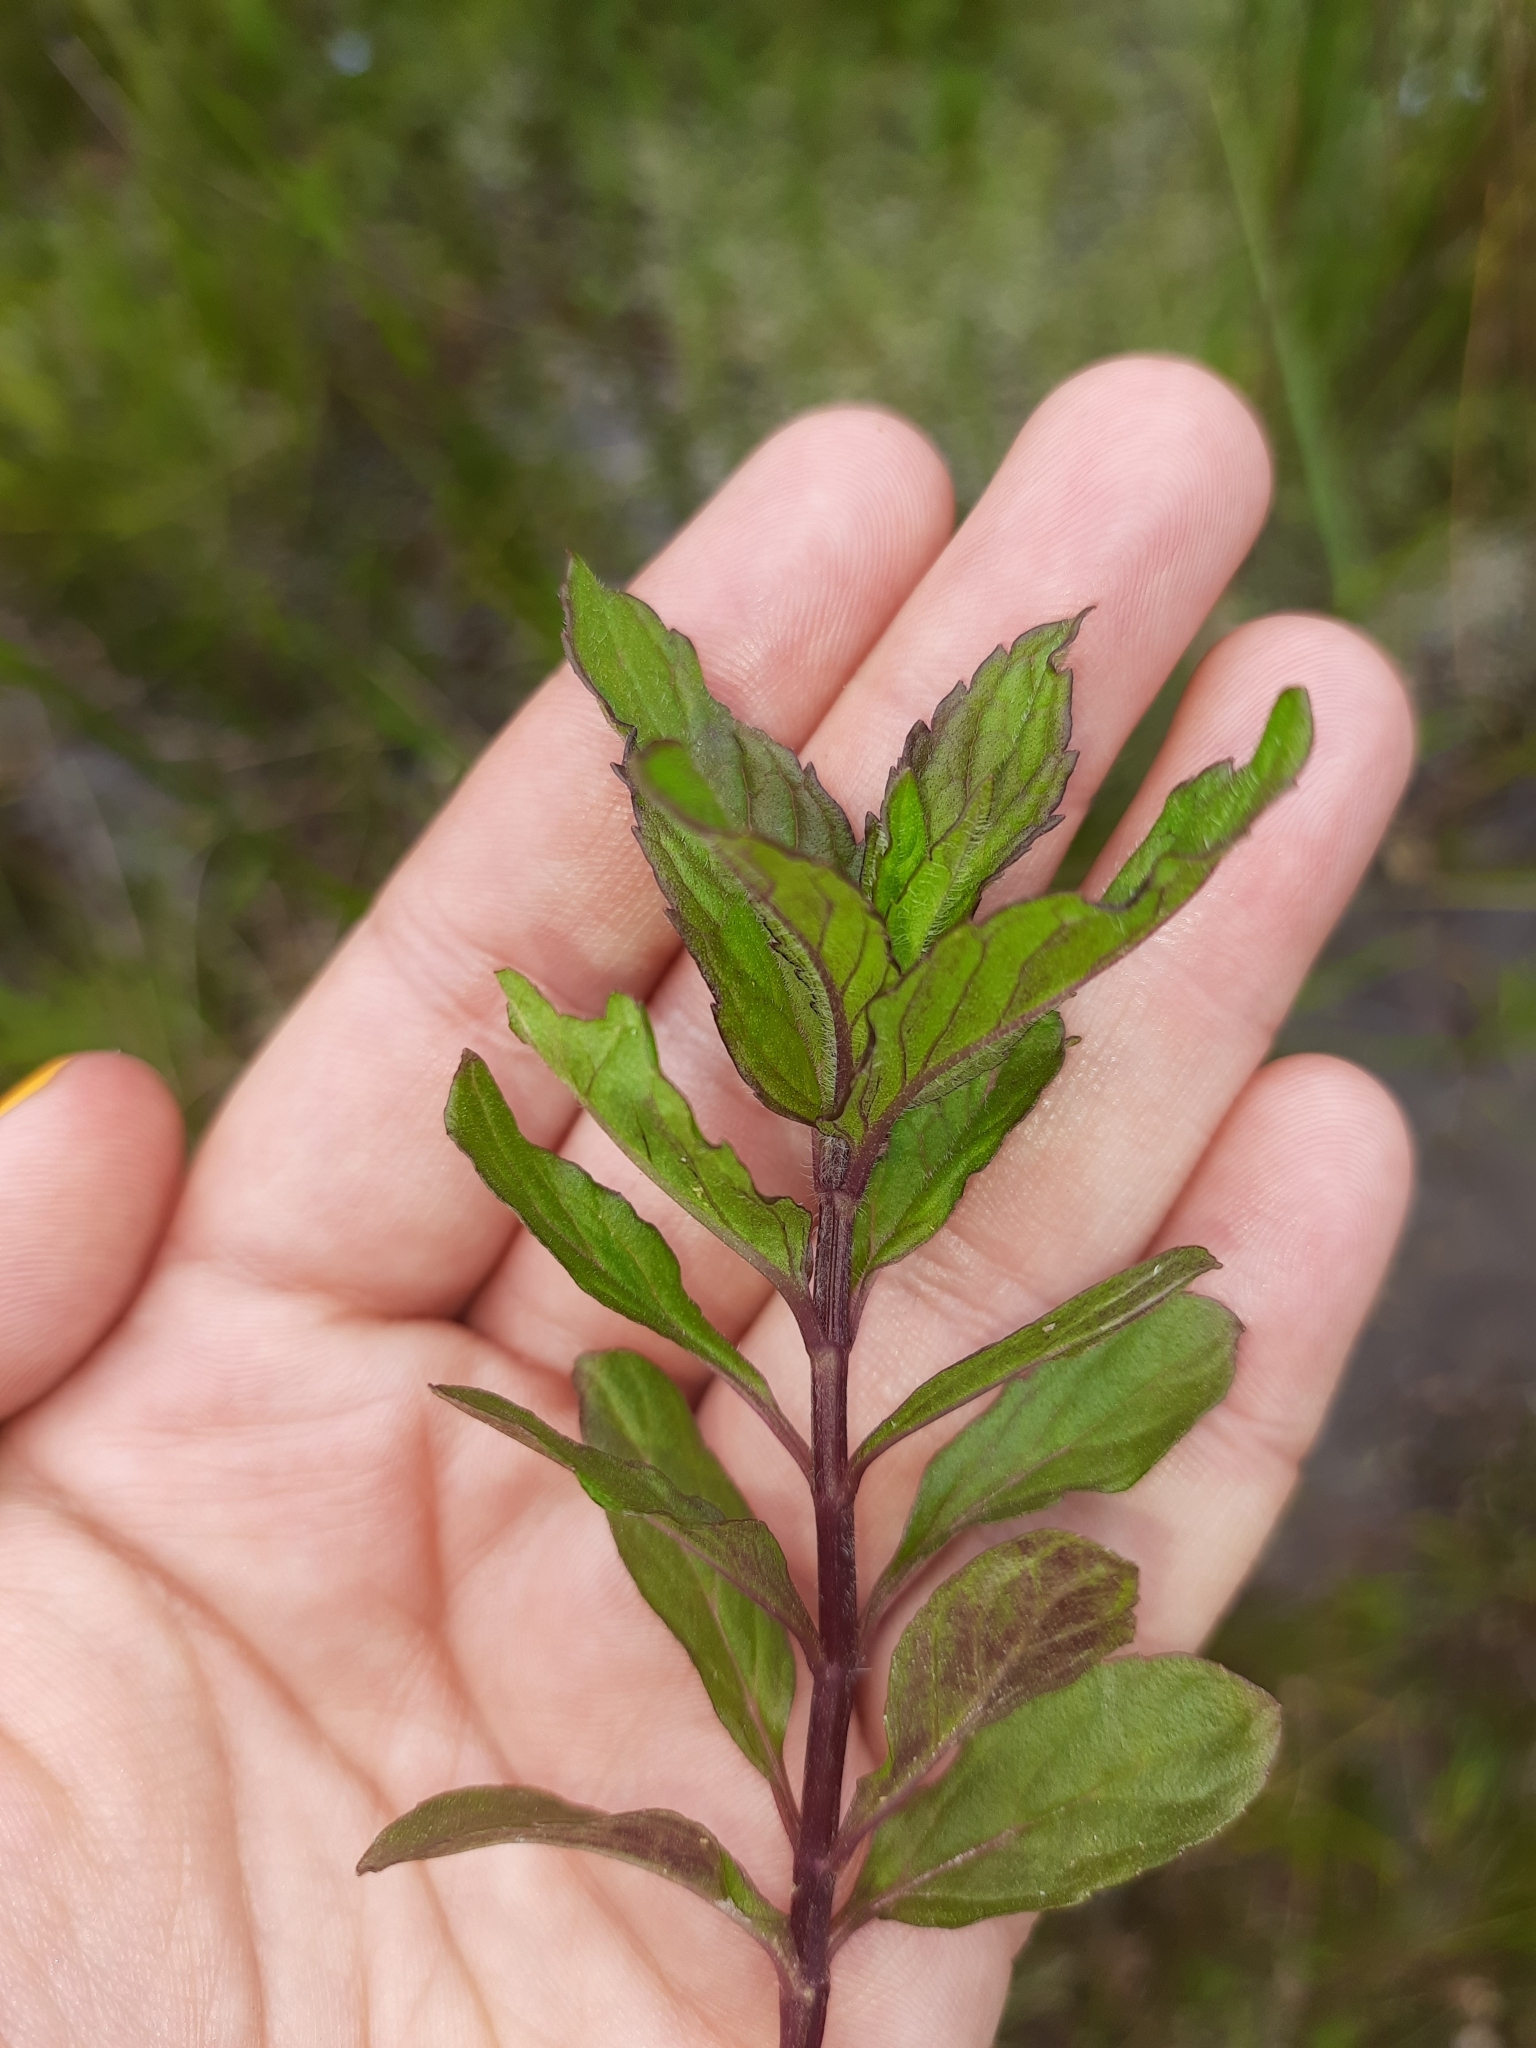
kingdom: Plantae
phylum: Tracheophyta
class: Magnoliopsida
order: Lamiales
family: Lamiaceae
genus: Mentha
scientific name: Mentha spicata
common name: Spearmint
